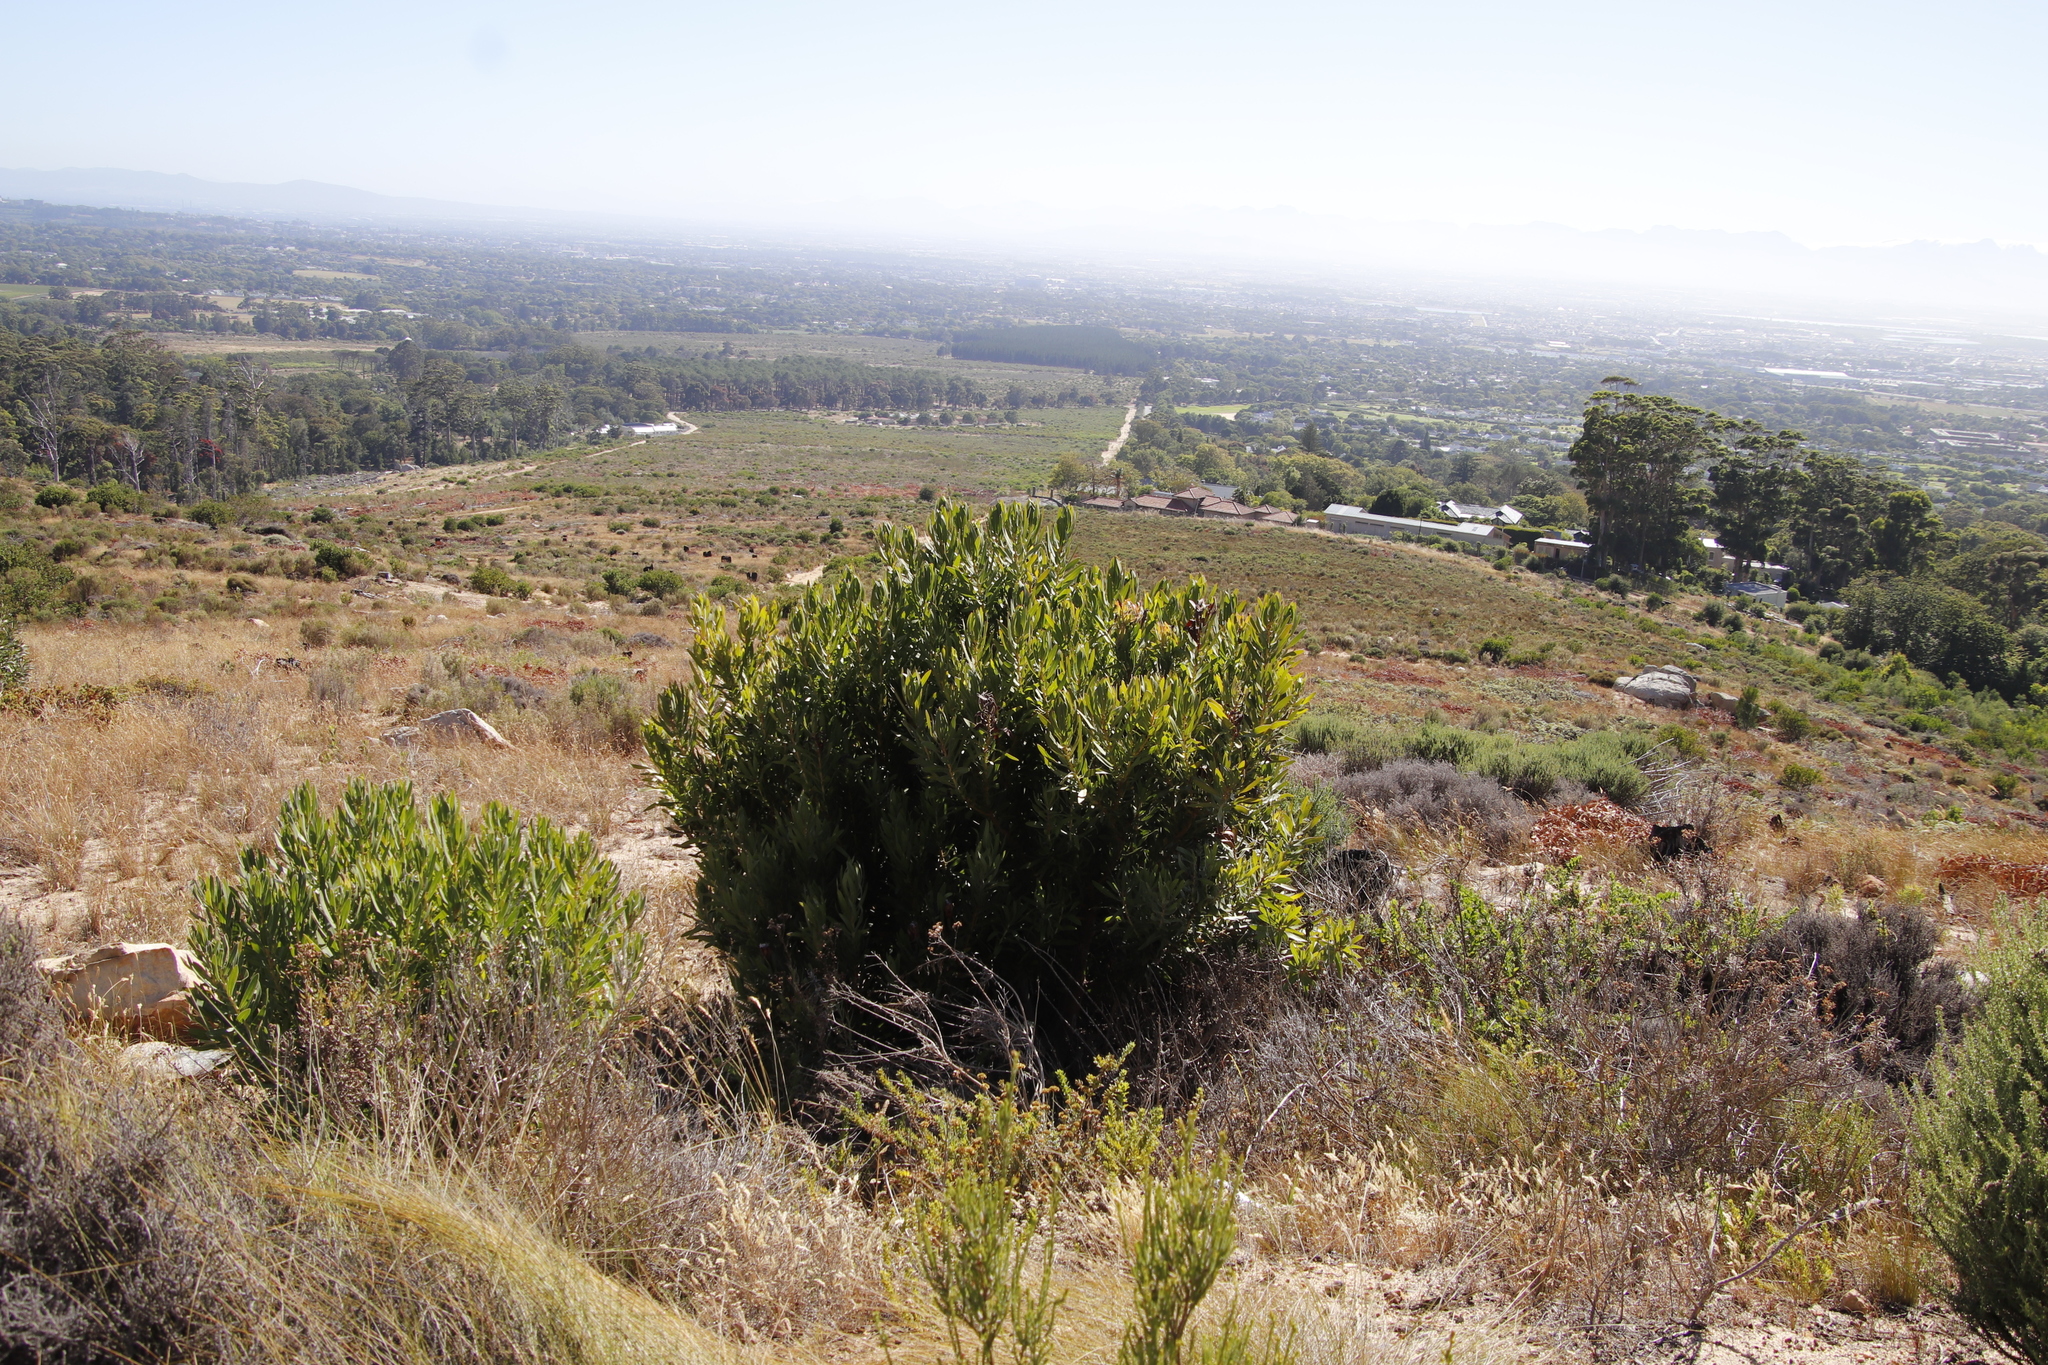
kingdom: Plantae
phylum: Tracheophyta
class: Magnoliopsida
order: Proteales
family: Proteaceae
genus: Protea
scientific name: Protea lepidocarpodendron
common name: Black-bearded protea
